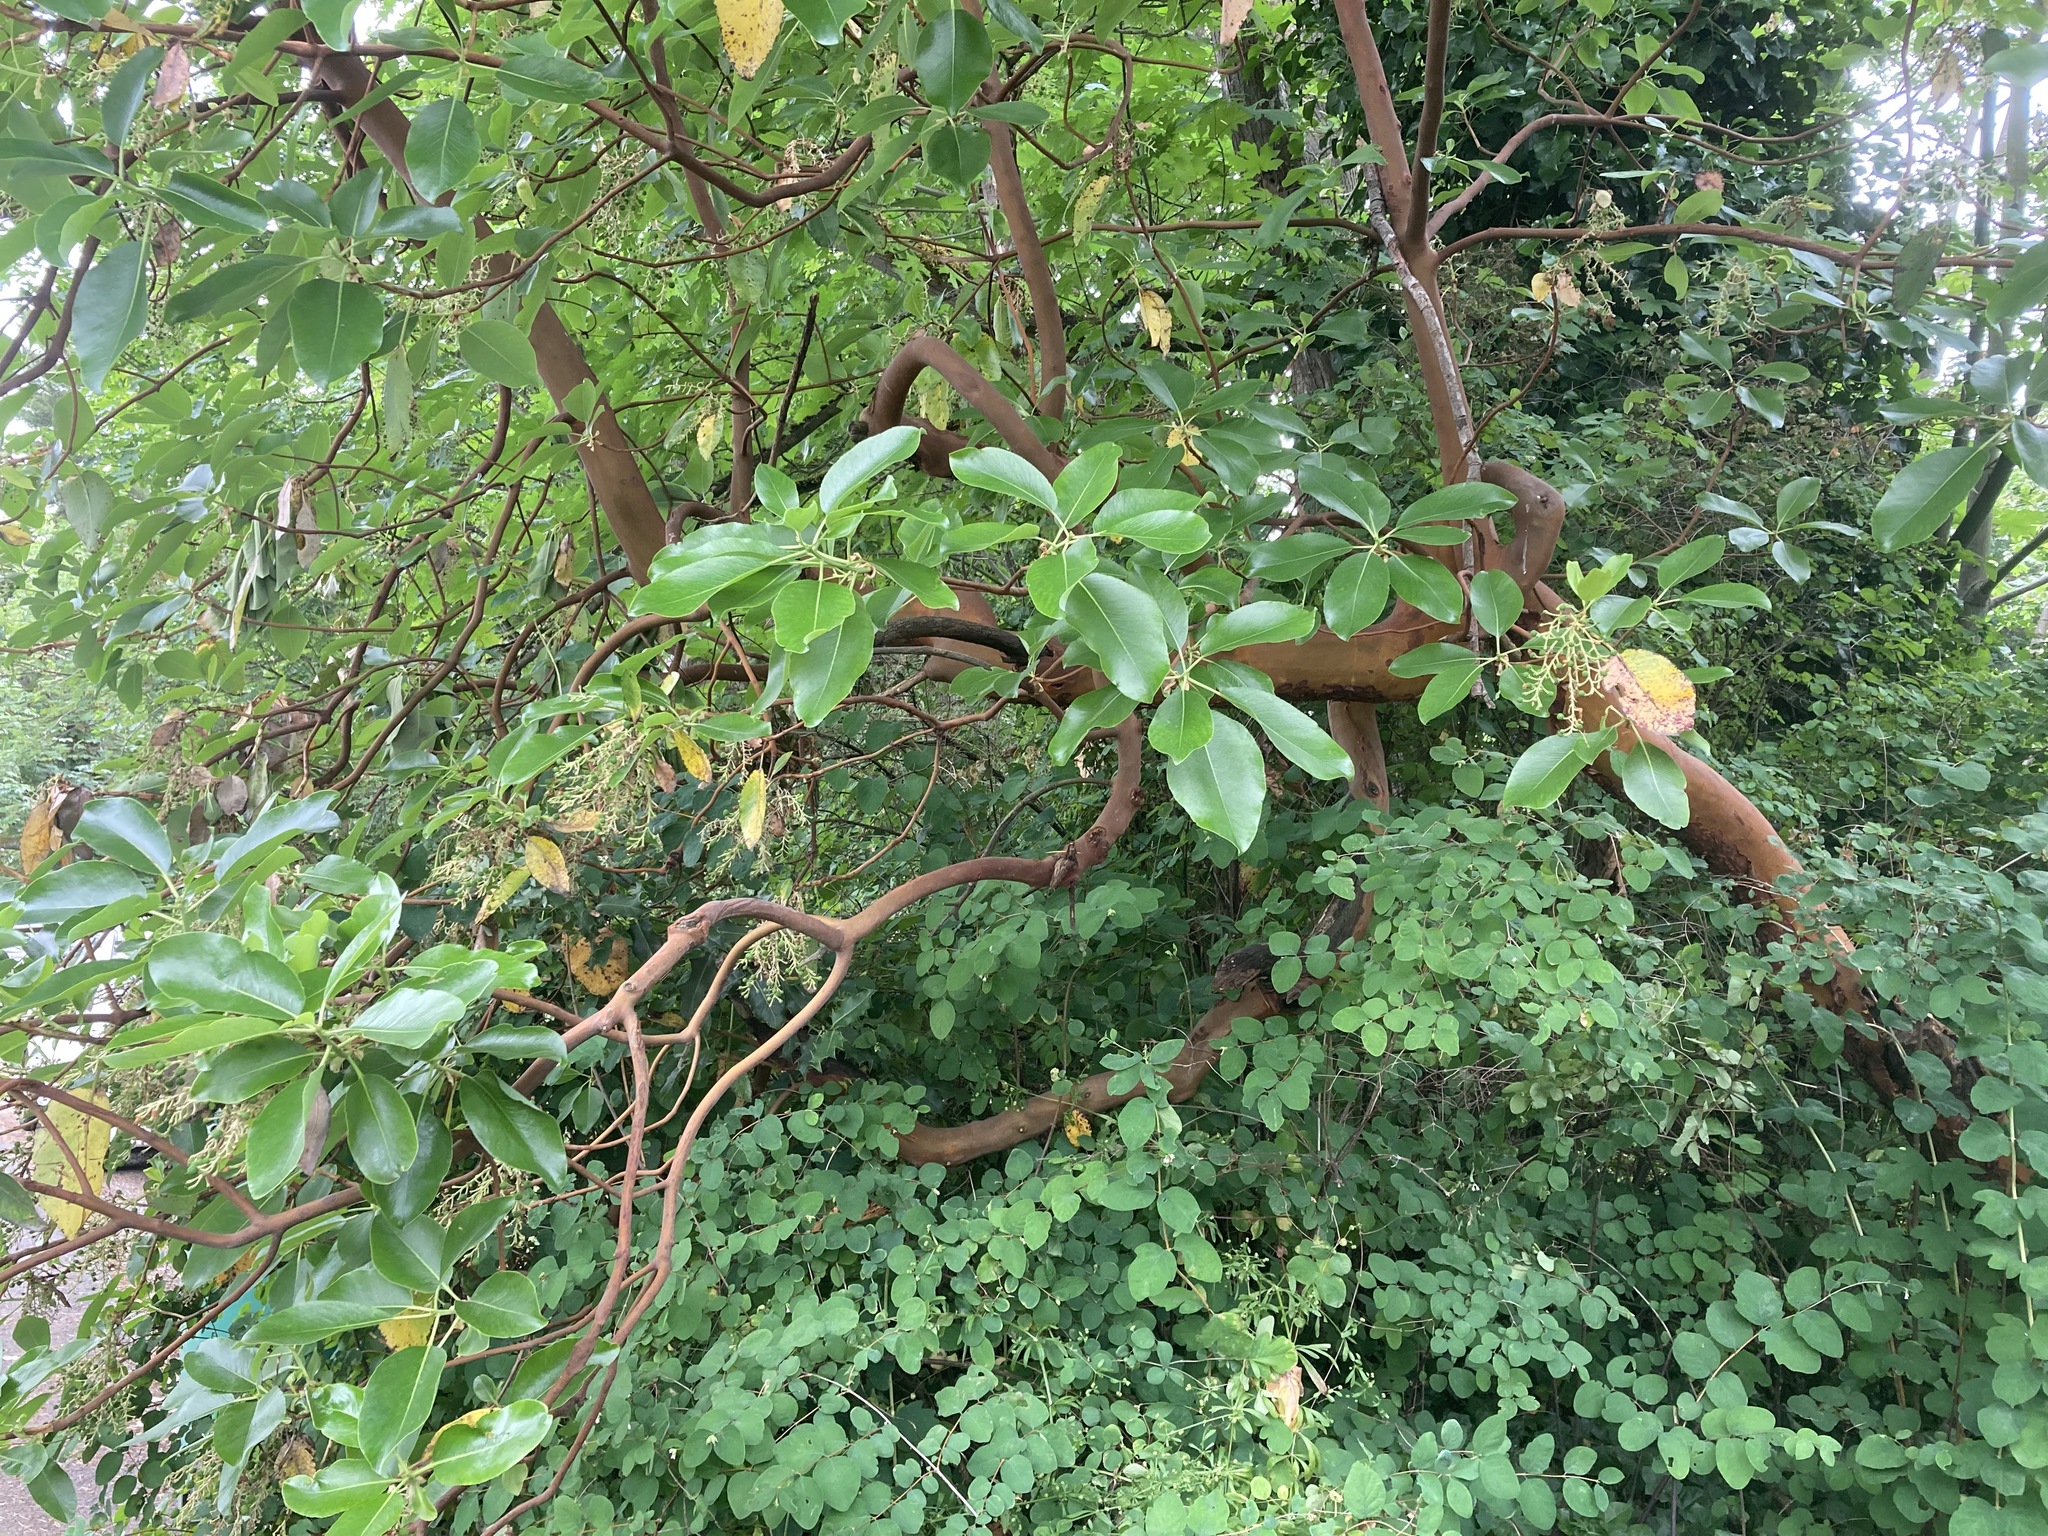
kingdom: Plantae
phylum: Tracheophyta
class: Magnoliopsida
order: Ericales
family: Ericaceae
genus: Arbutus
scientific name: Arbutus menziesii
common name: Pacific madrone
